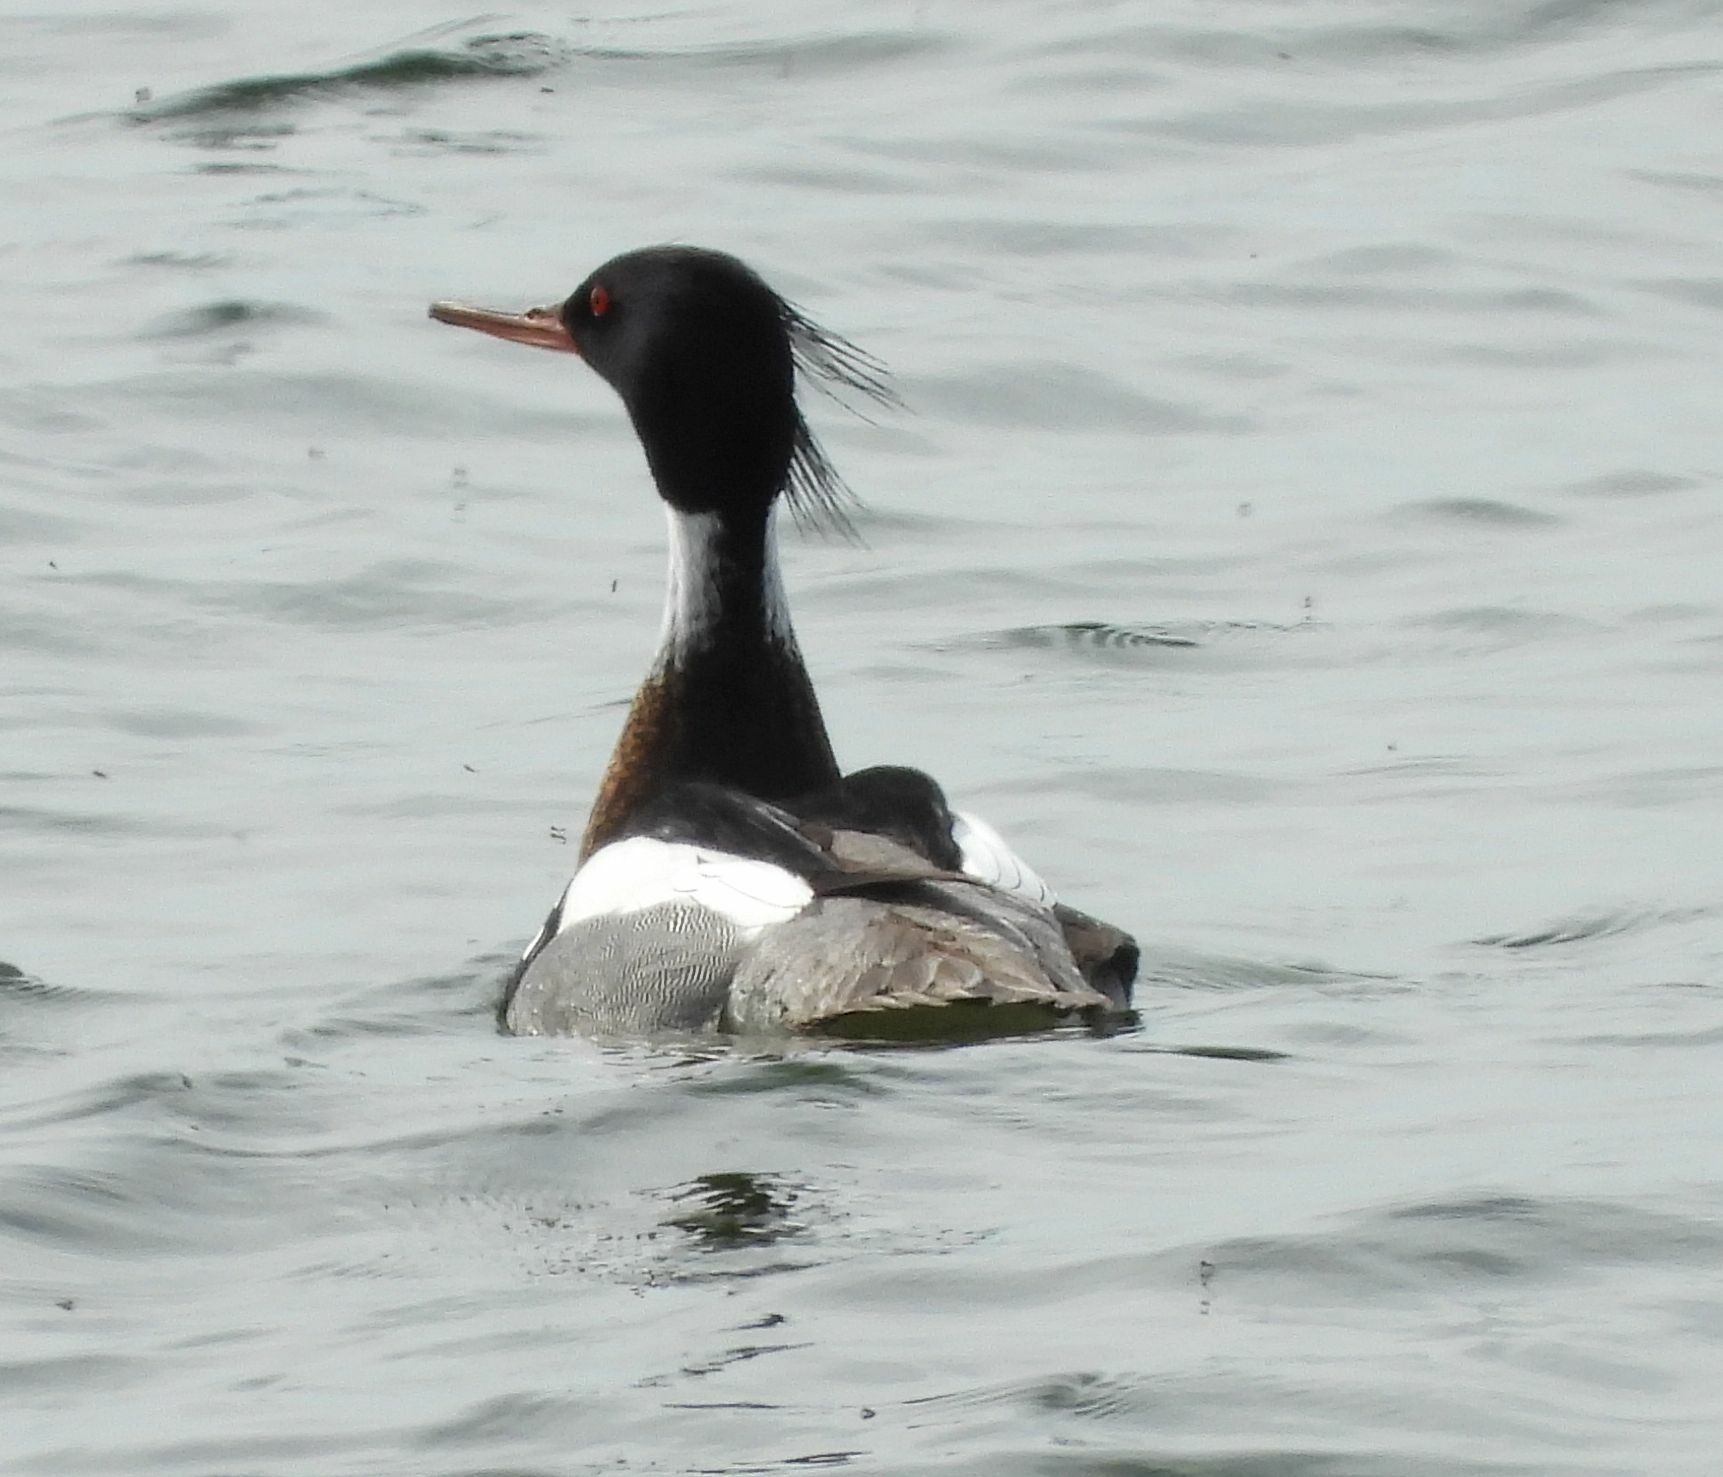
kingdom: Animalia
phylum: Chordata
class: Aves
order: Anseriformes
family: Anatidae
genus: Mergus
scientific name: Mergus serrator
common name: Red-breasted merganser
